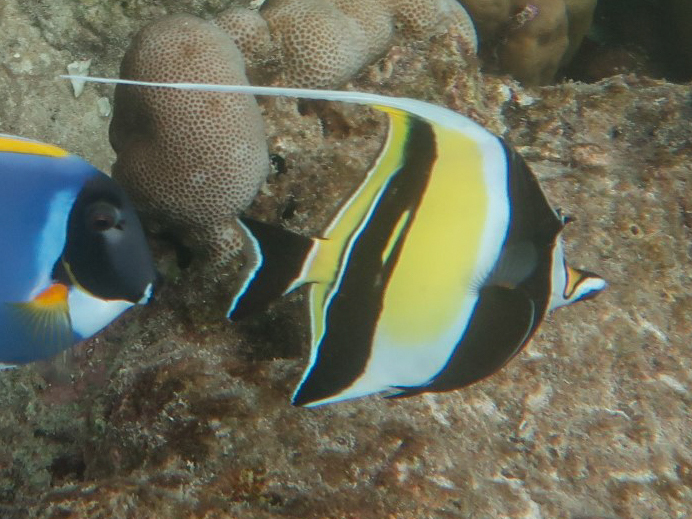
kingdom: Animalia
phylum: Chordata
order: Perciformes
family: Zanclidae
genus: Zanclus
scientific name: Zanclus cornutus
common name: Moorish idol
